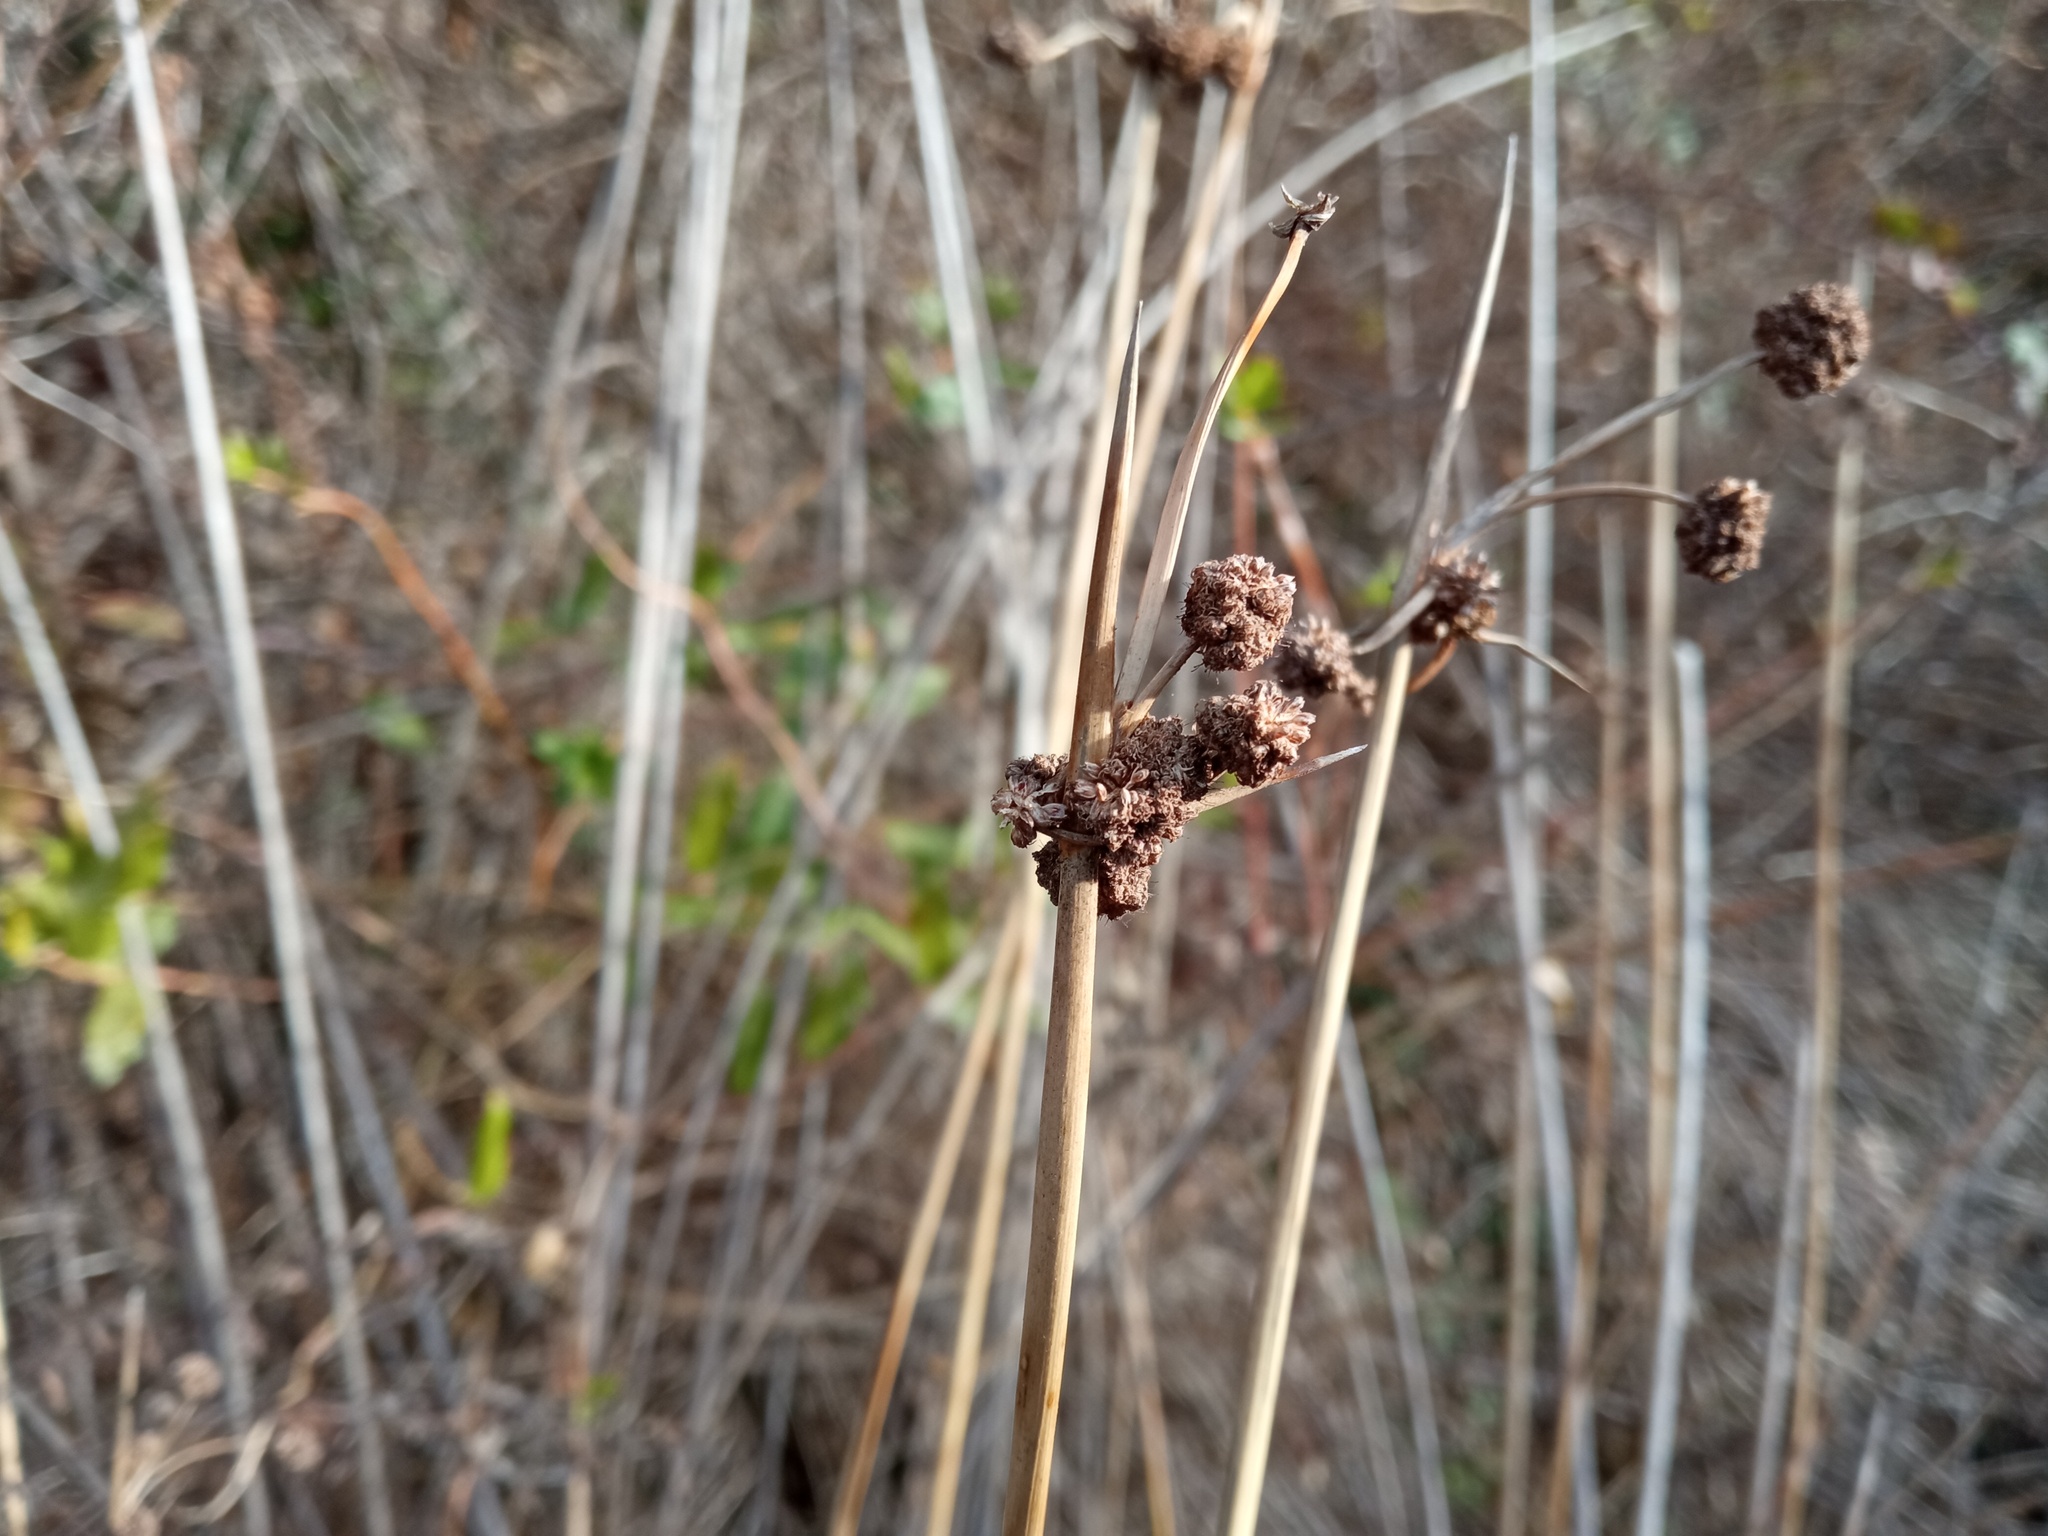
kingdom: Plantae
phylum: Tracheophyta
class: Liliopsida
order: Poales
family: Cyperaceae
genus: Scirpoides
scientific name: Scirpoides holoschoenus
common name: Round-headed club-rush
